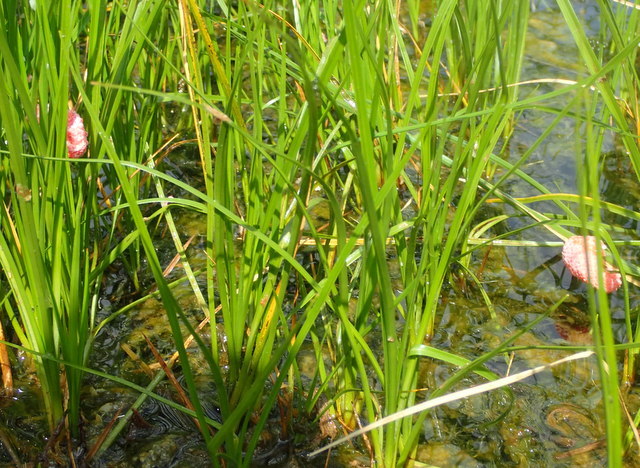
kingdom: Animalia
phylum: Mollusca
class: Gastropoda
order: Architaenioglossa
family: Ampullariidae
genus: Pomacea
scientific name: Pomacea maculata
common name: Giant applesnail
